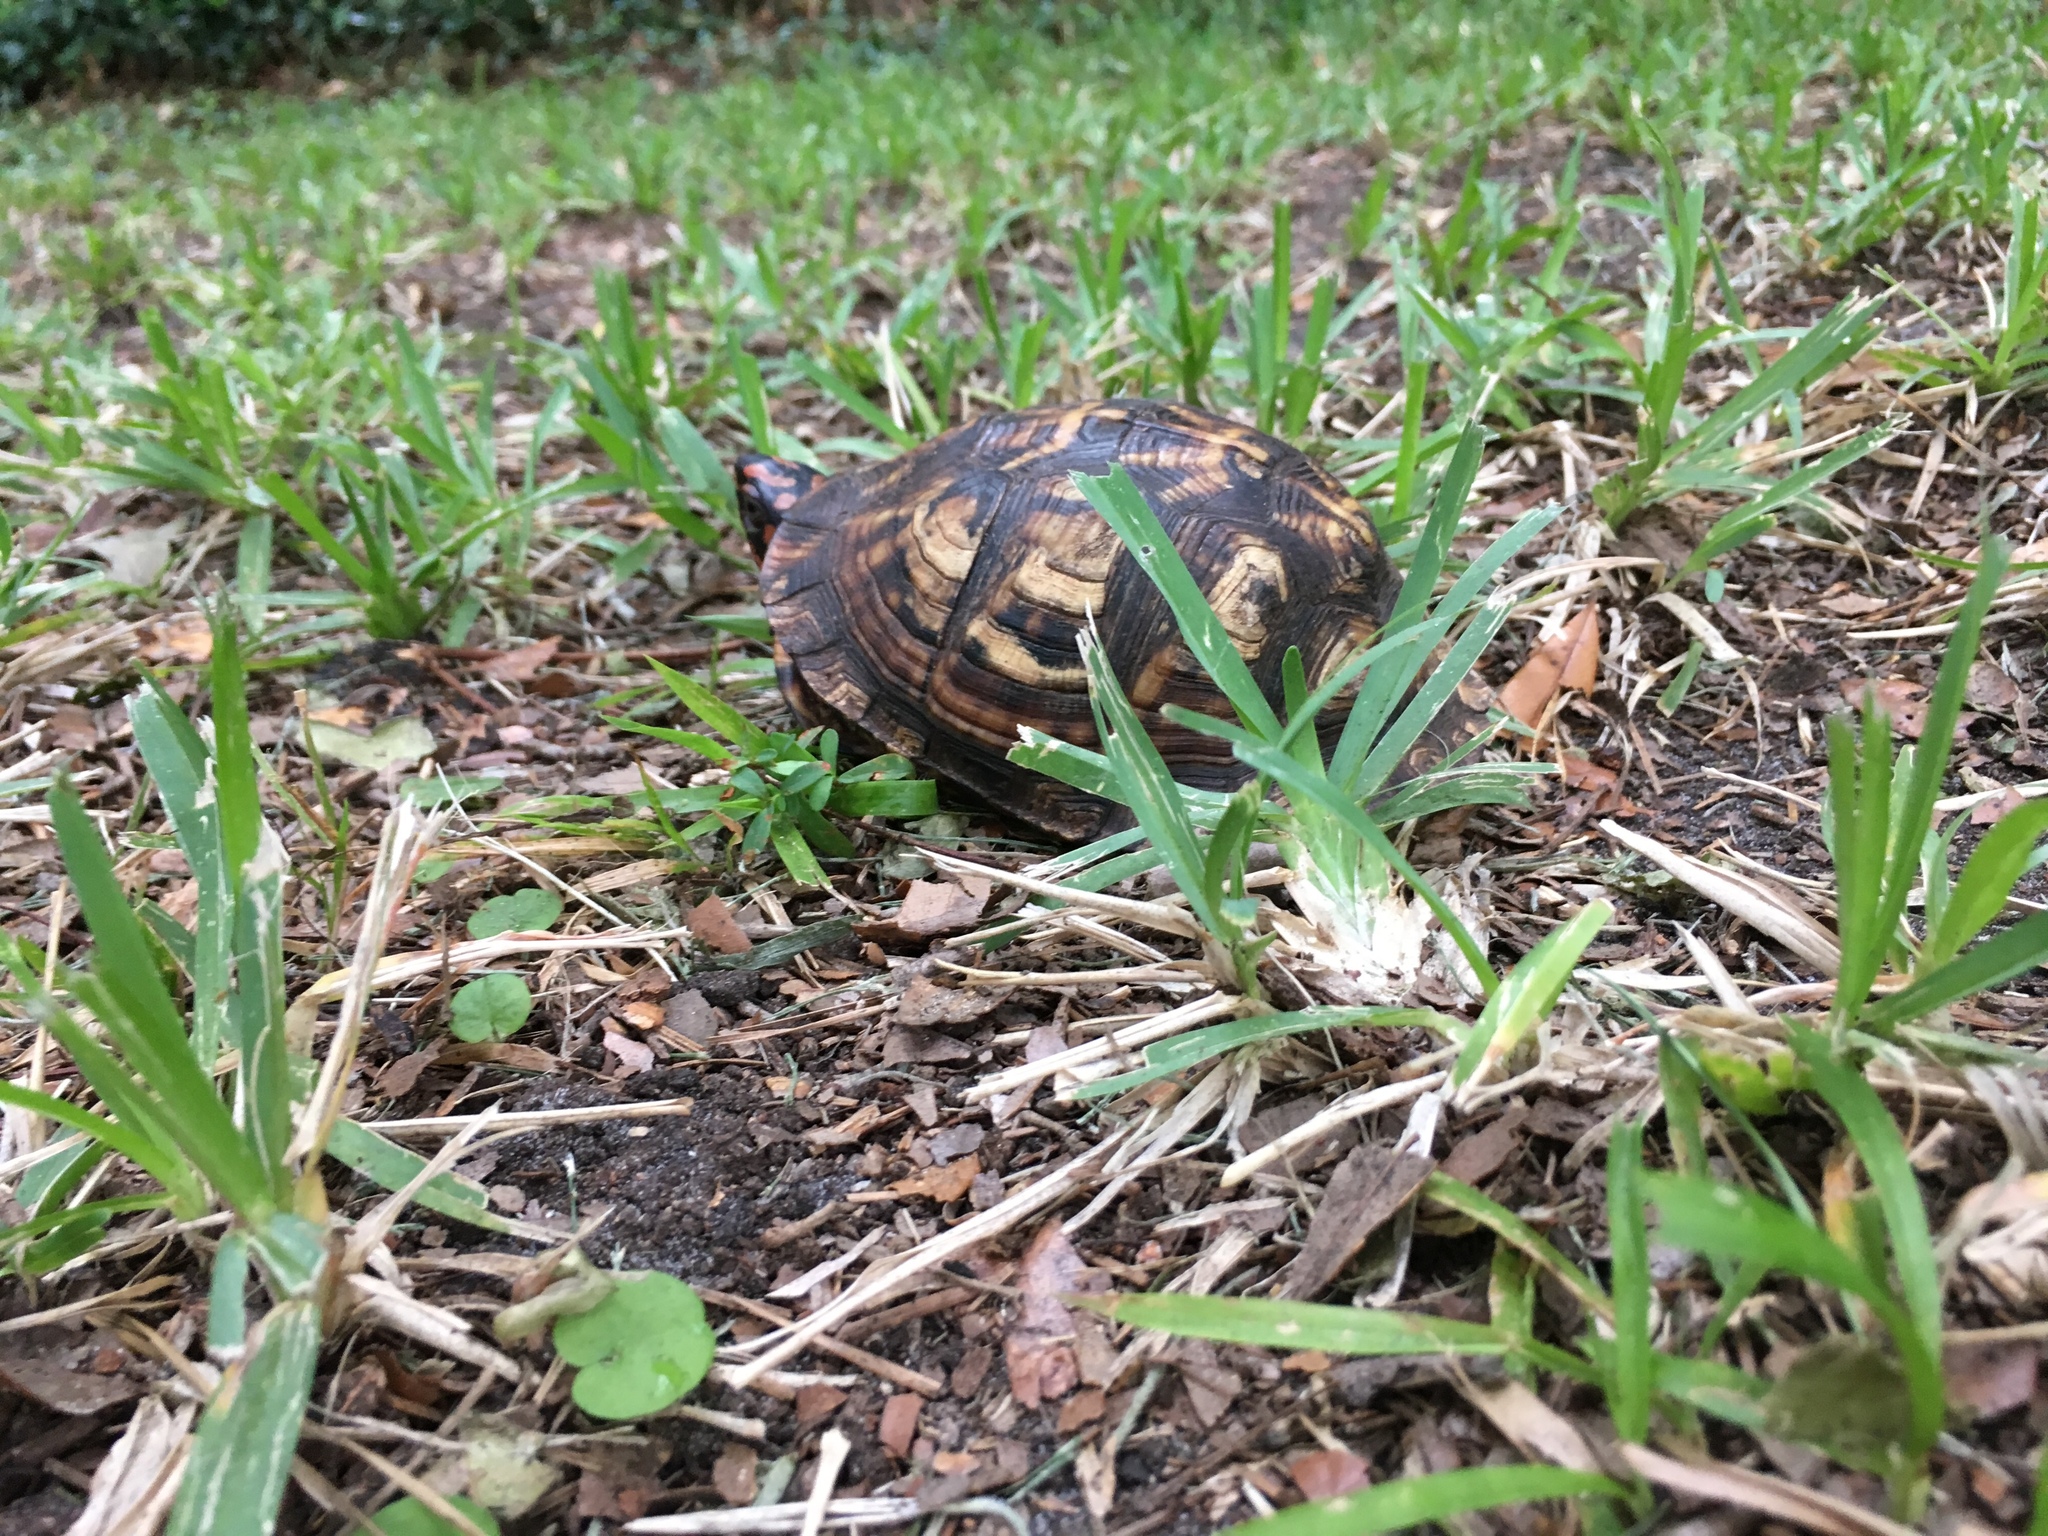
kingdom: Animalia
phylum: Chordata
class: Testudines
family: Emydidae
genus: Terrapene
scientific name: Terrapene carolina
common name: Common box turtle
